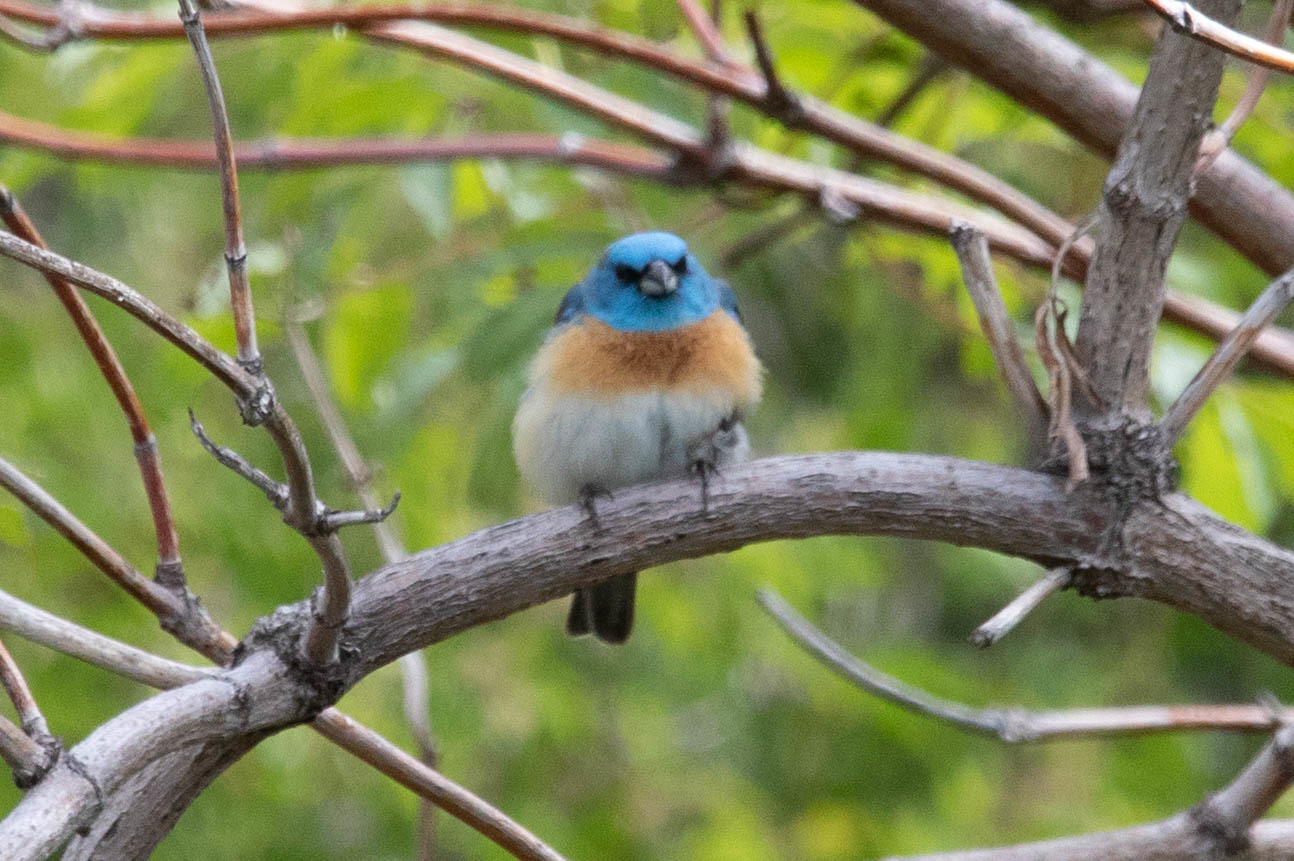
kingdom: Animalia
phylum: Chordata
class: Aves
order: Passeriformes
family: Cardinalidae
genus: Passerina
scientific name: Passerina amoena
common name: Lazuli bunting
